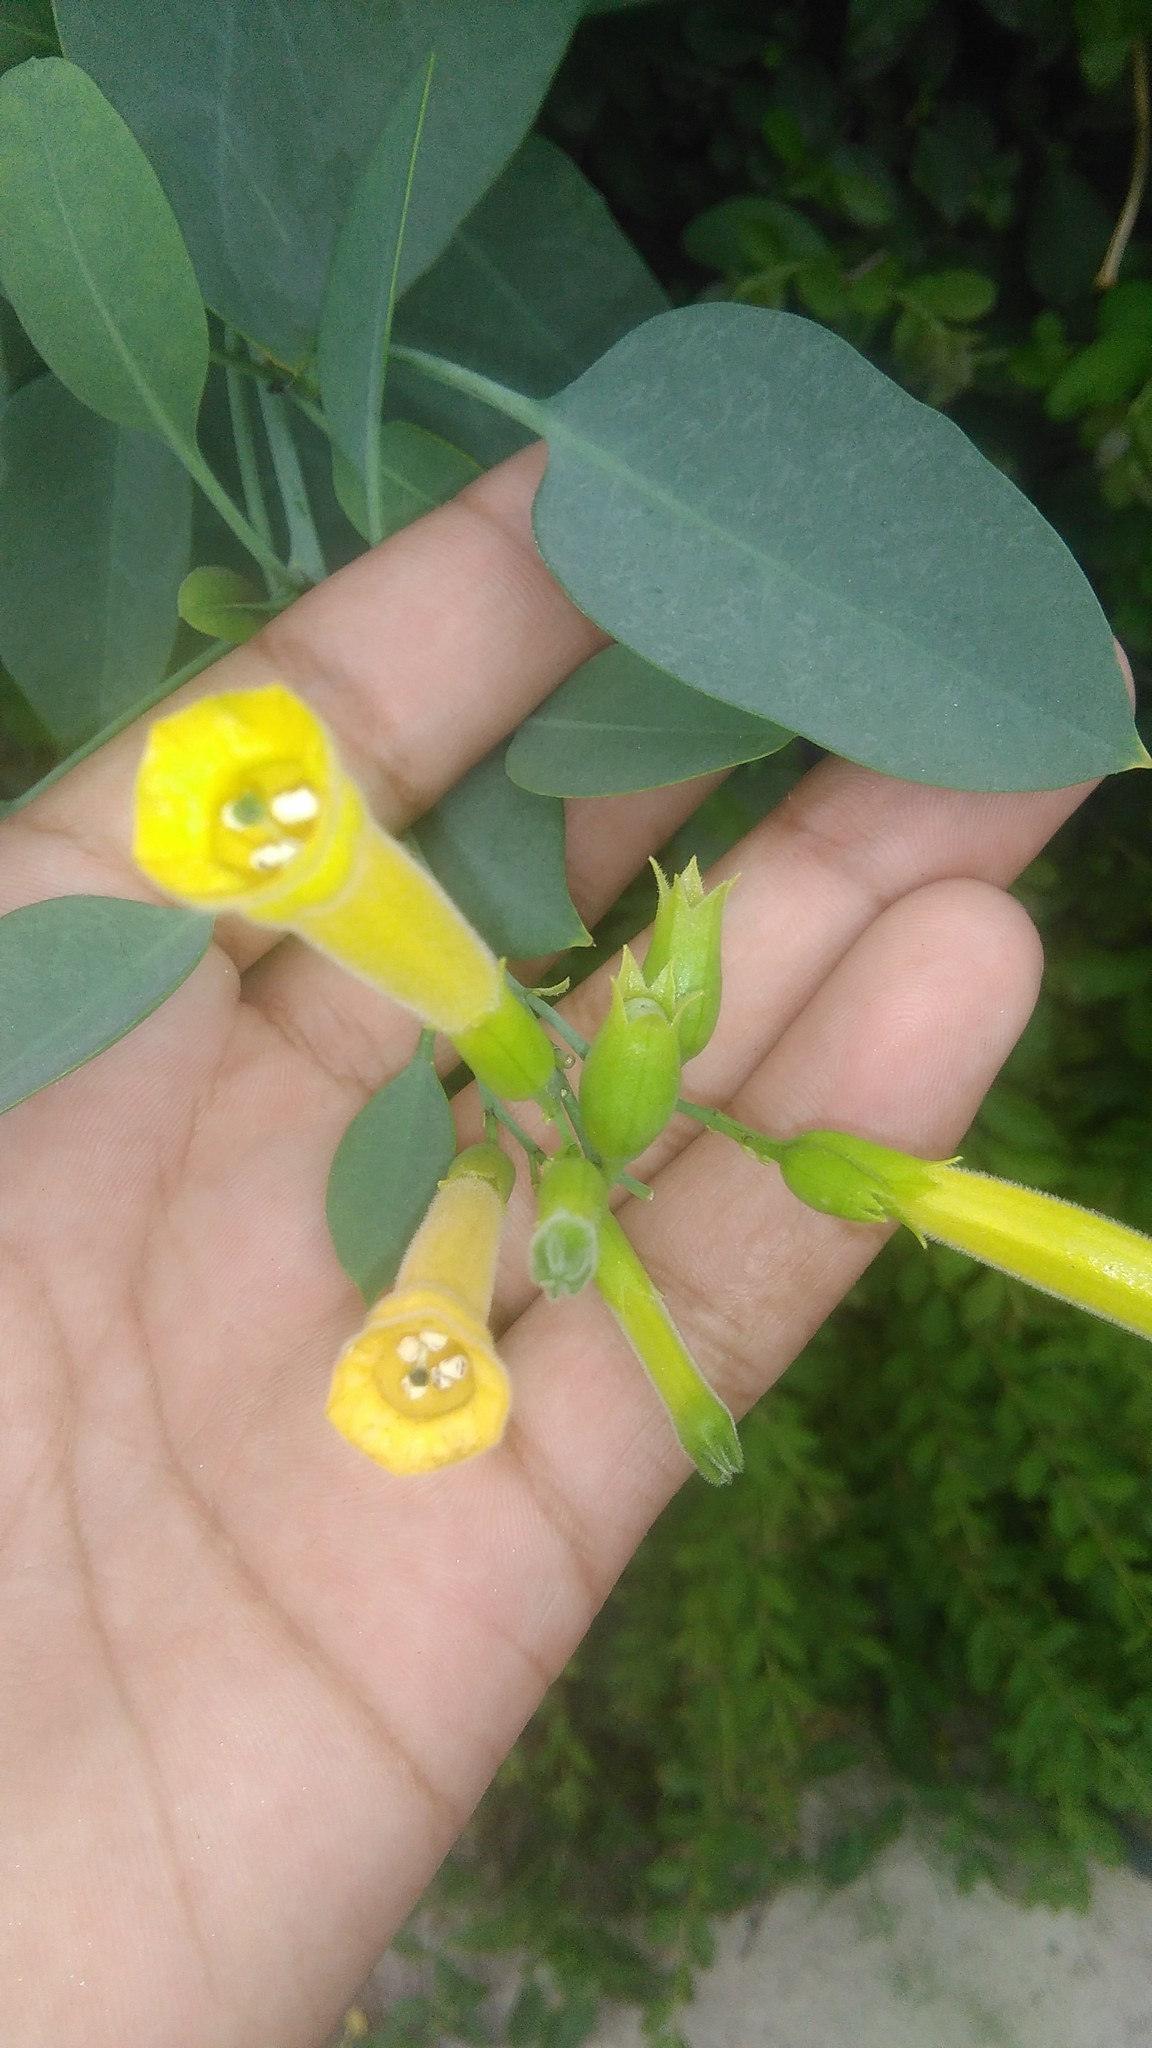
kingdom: Plantae
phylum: Tracheophyta
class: Magnoliopsida
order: Solanales
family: Solanaceae
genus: Nicotiana
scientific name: Nicotiana glauca
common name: Tree tobacco
